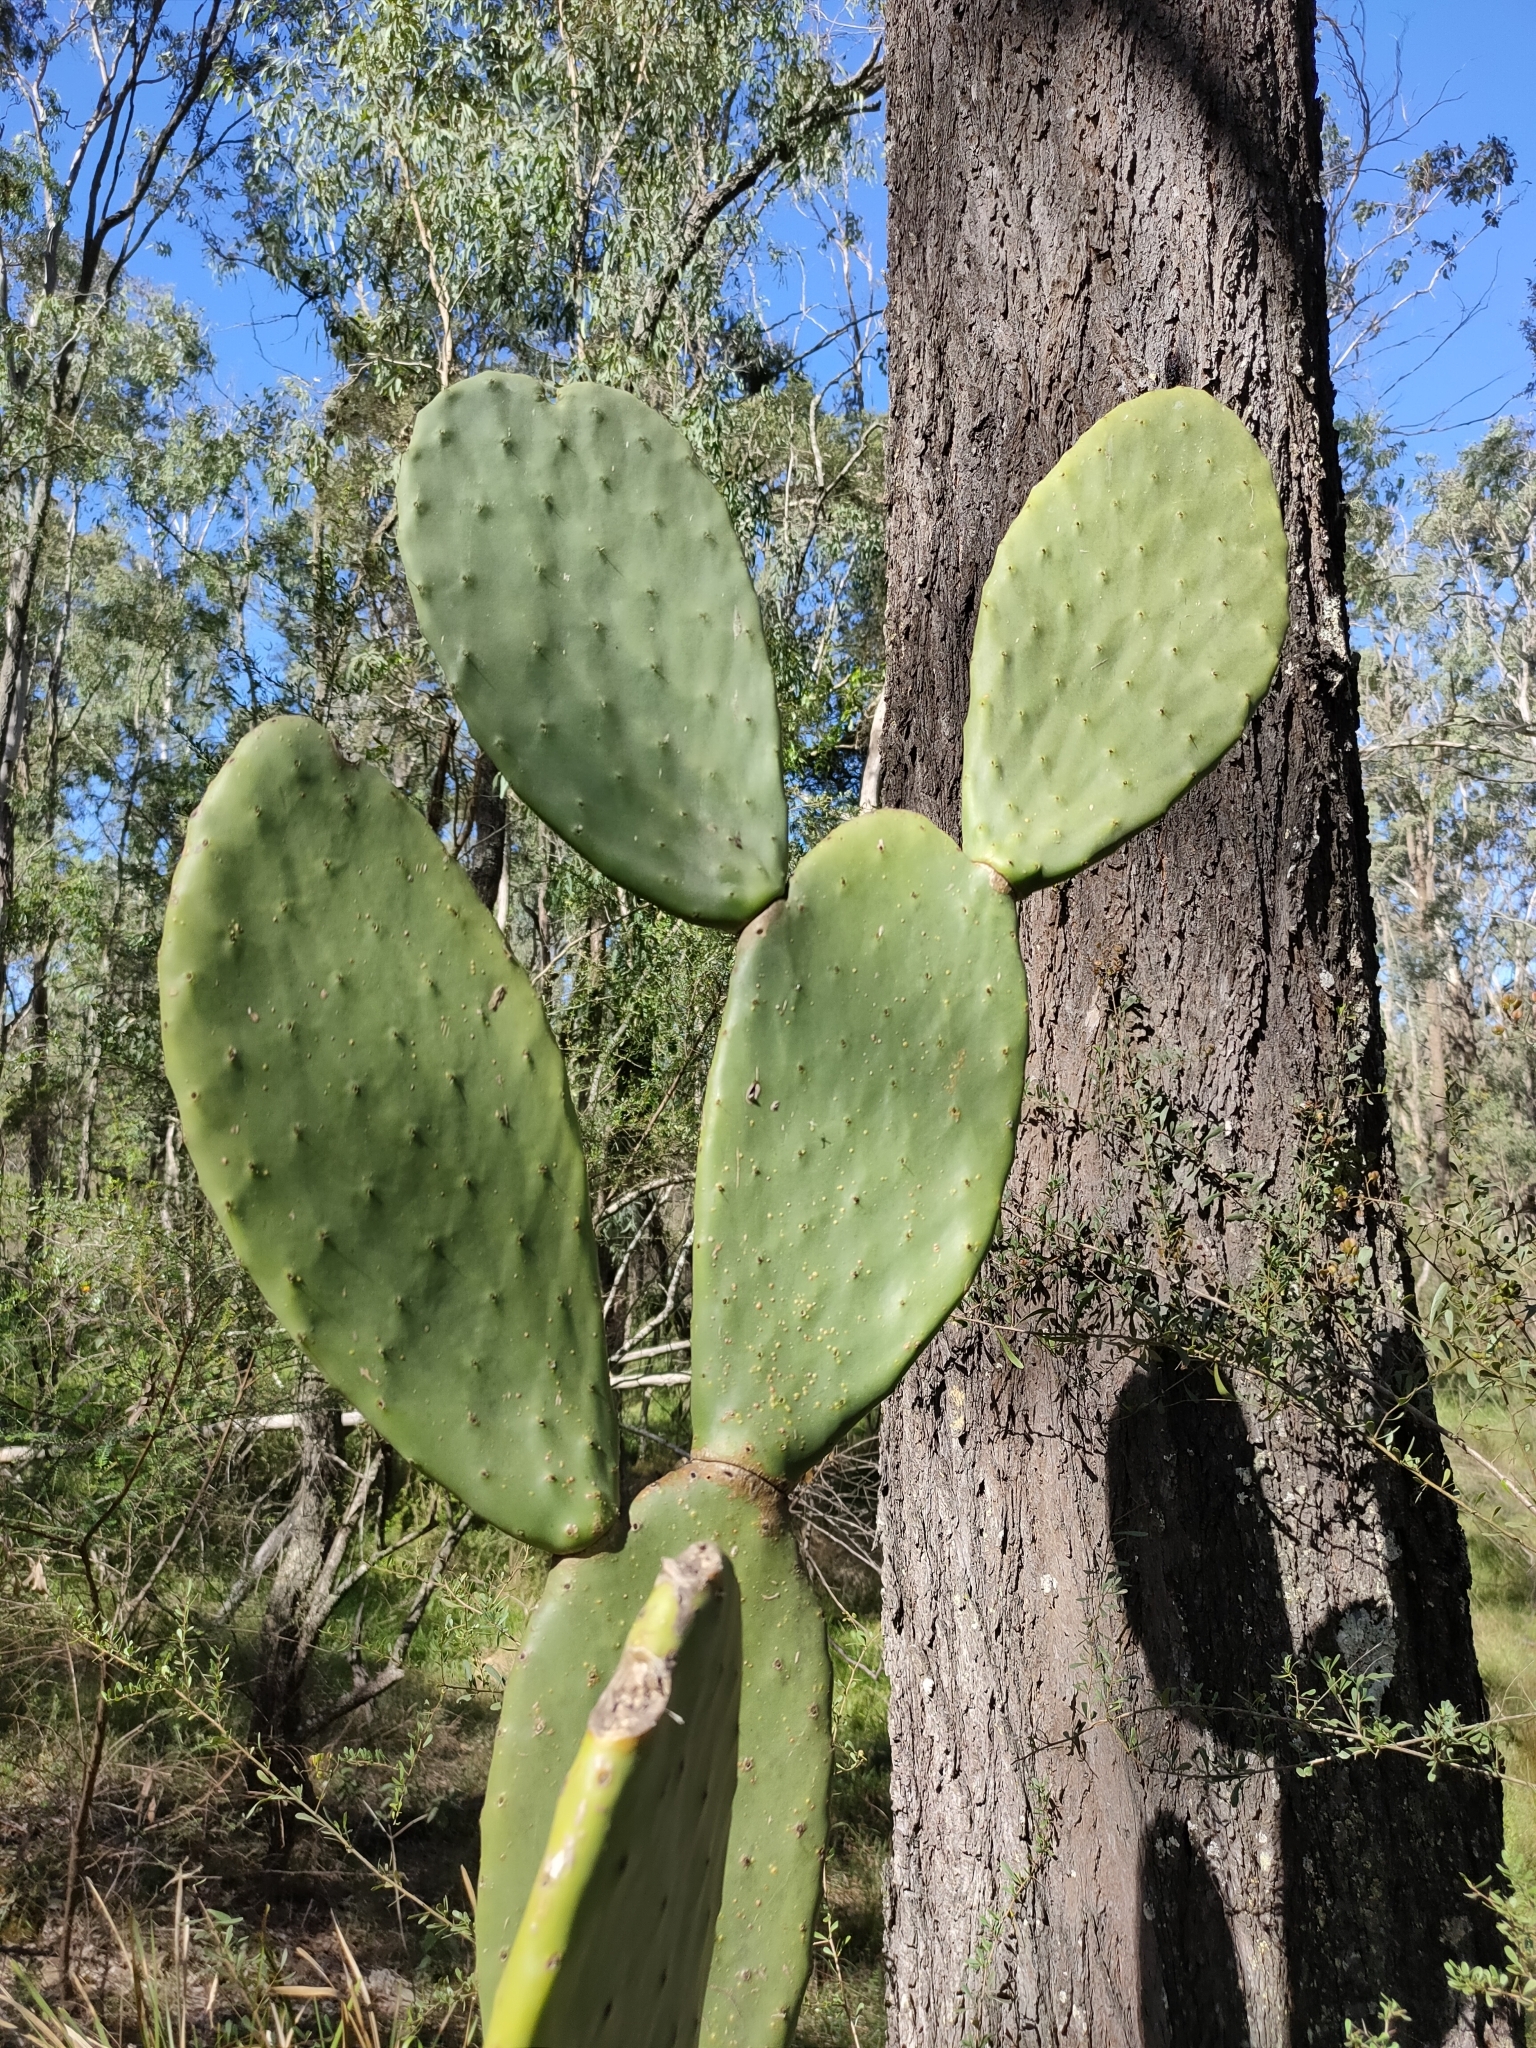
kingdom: Plantae
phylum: Tracheophyta
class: Magnoliopsida
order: Caryophyllales
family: Cactaceae
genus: Opuntia
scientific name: Opuntia ficus-indica
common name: Barbary fig
